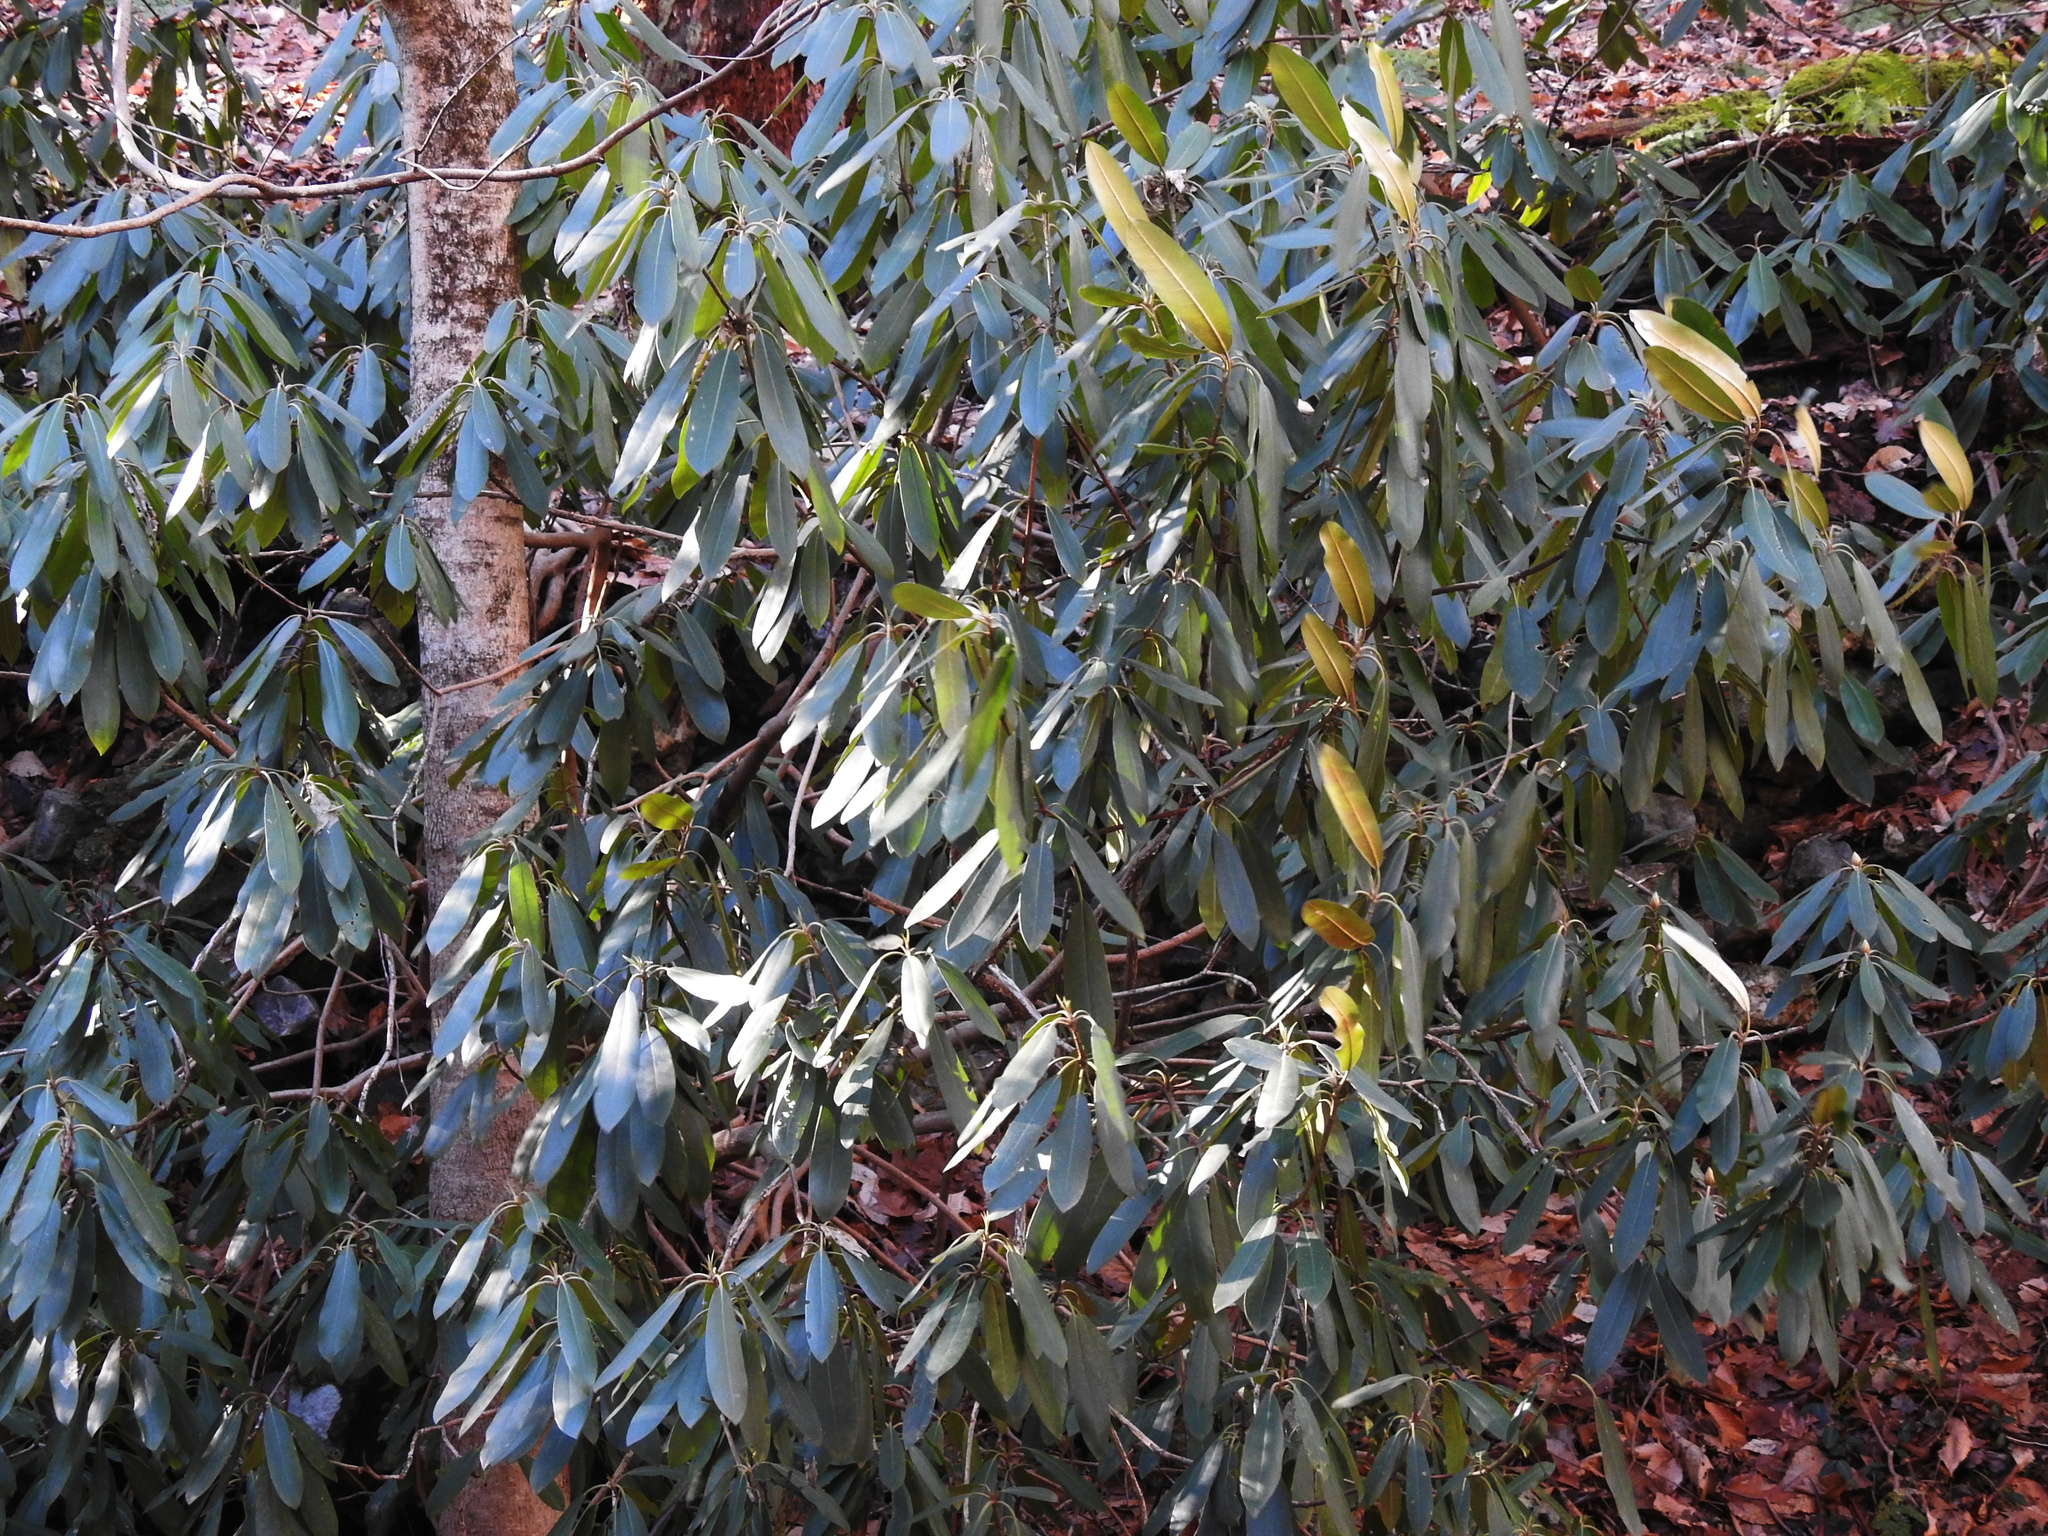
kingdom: Plantae
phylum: Tracheophyta
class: Magnoliopsida
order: Ericales
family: Ericaceae
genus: Rhododendron
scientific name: Rhododendron maximum
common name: Great rhododendron
